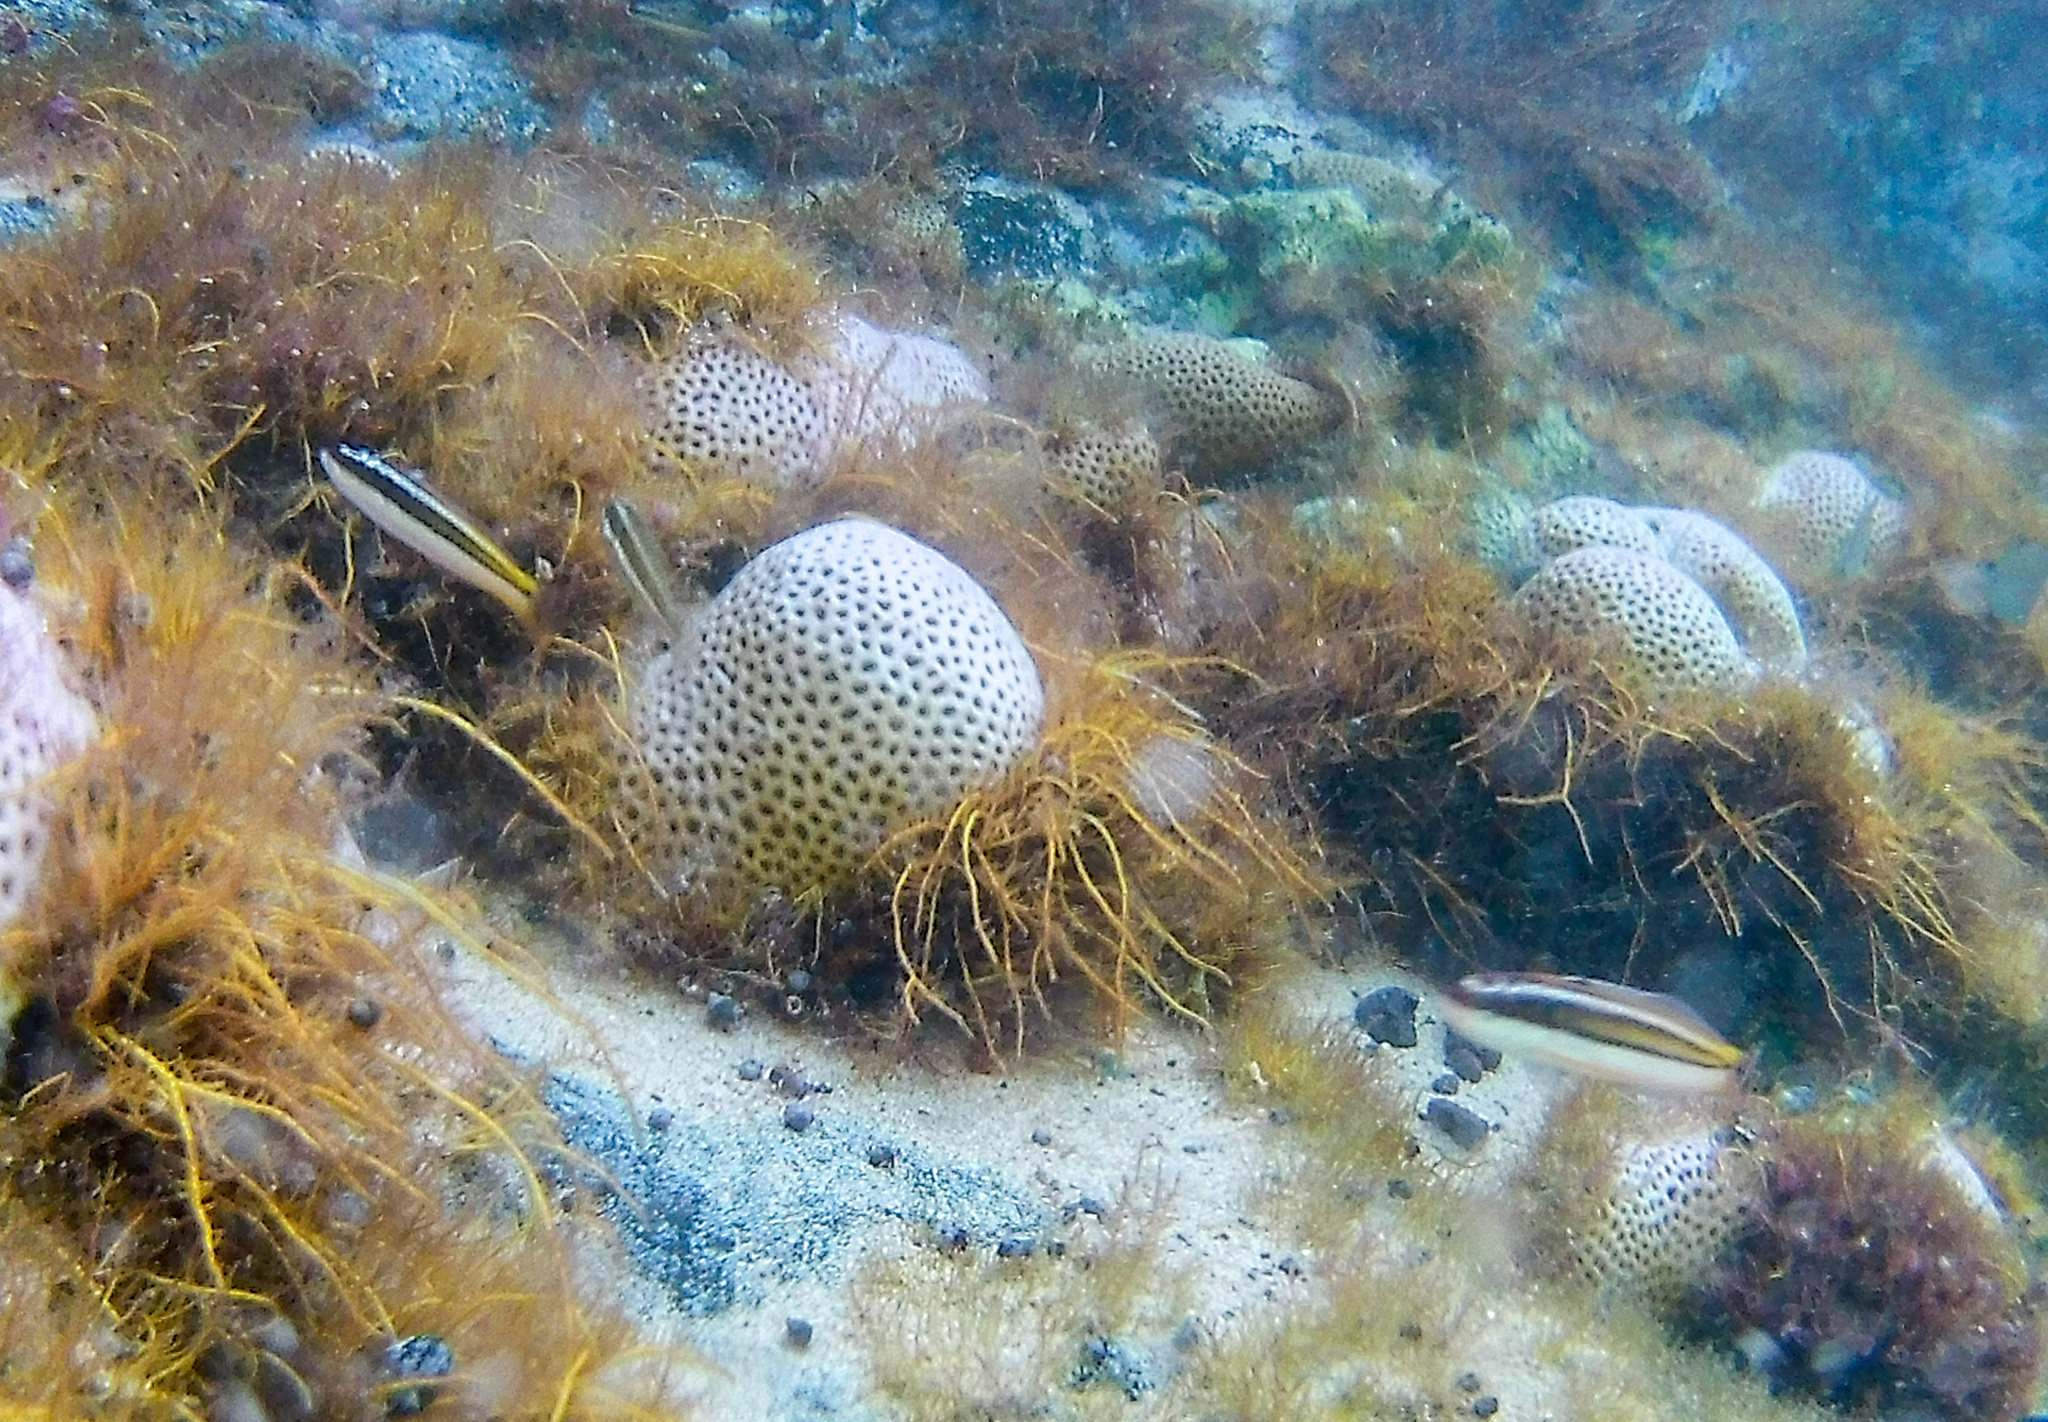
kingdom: Animalia
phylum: Chordata
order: Perciformes
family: Labridae
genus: Thalassoma
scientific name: Thalassoma noronhanum
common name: Noronha wrasse
